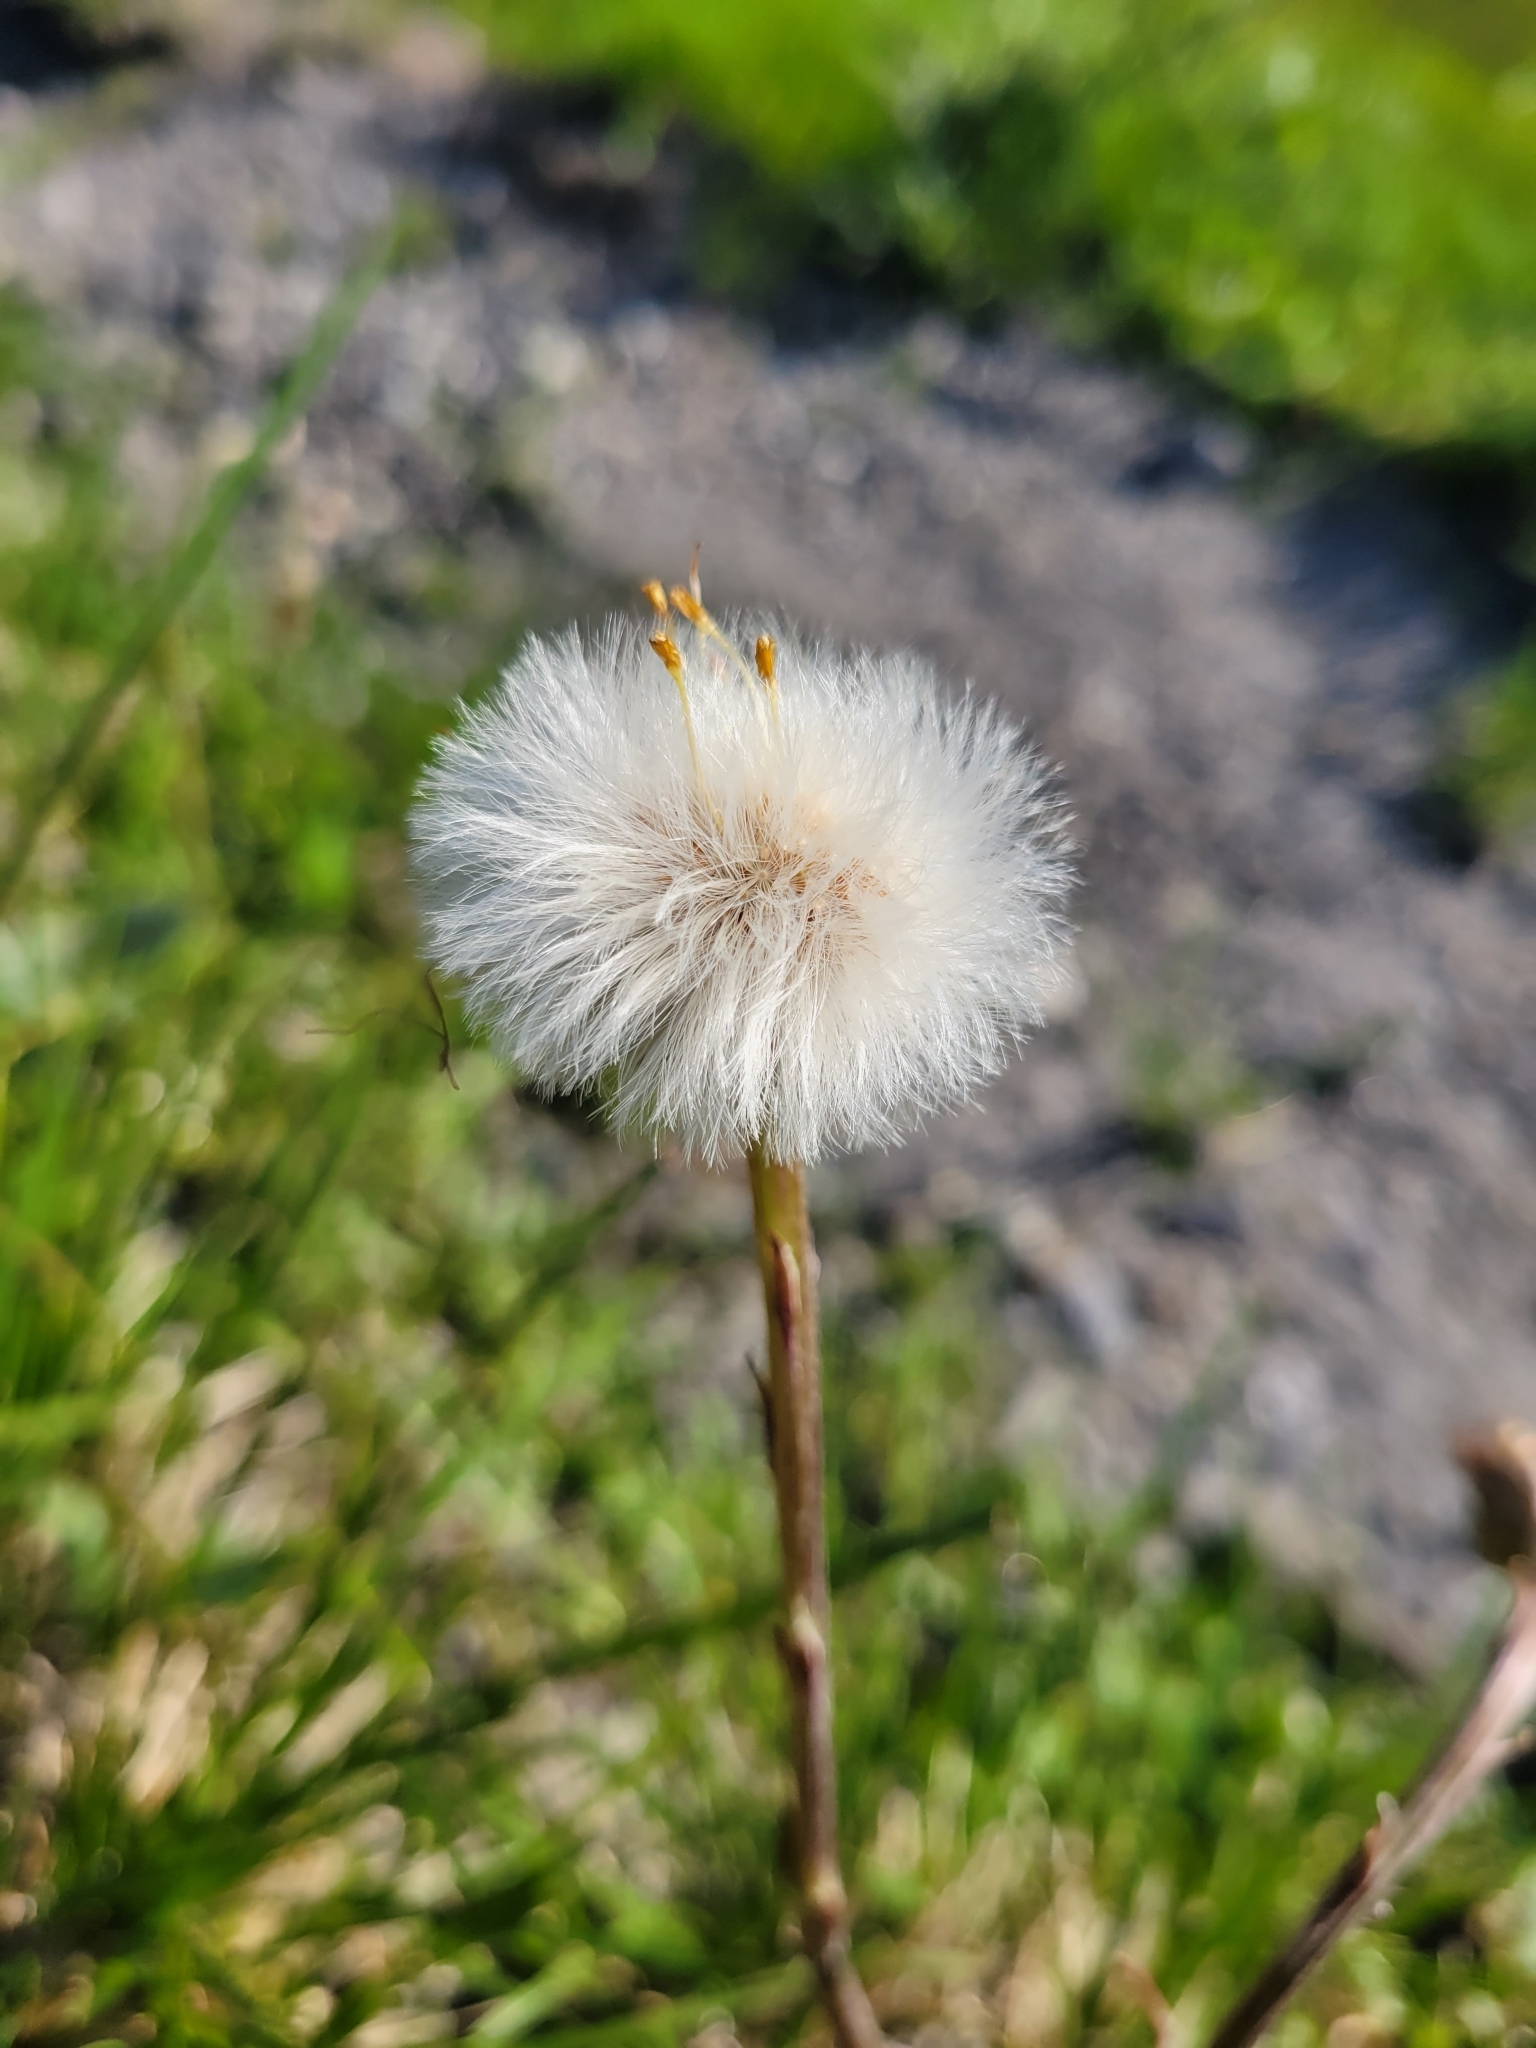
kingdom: Plantae
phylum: Tracheophyta
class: Magnoliopsida
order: Asterales
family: Asteraceae
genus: Tussilago
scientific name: Tussilago farfara
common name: Coltsfoot
